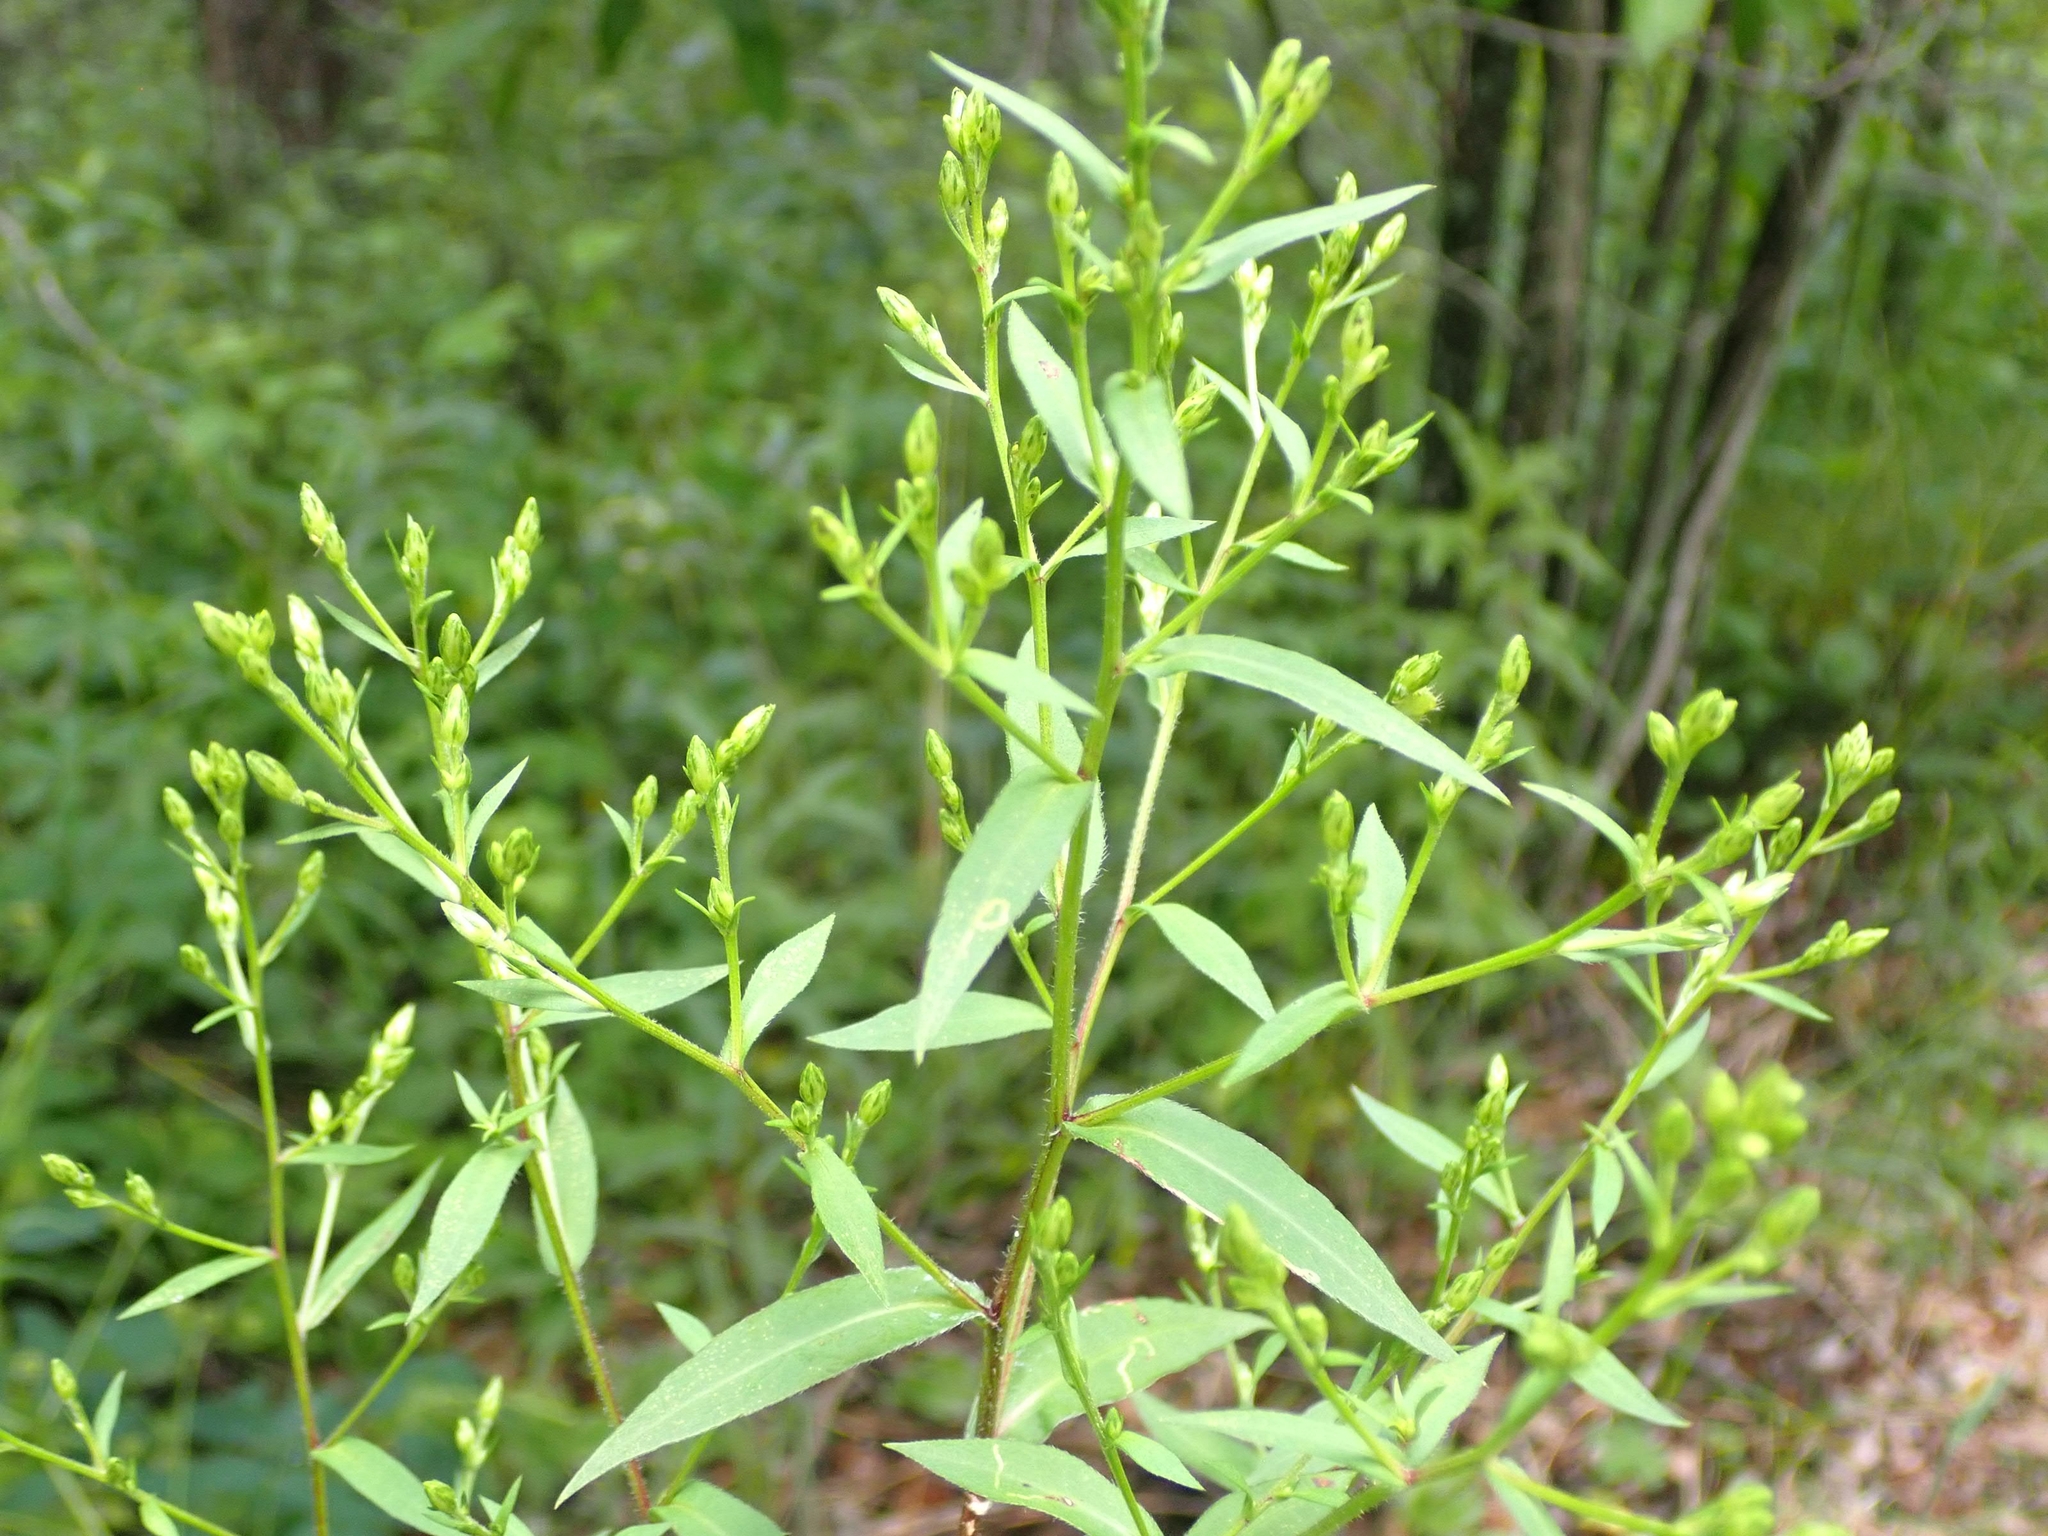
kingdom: Plantae
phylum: Tracheophyta
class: Magnoliopsida
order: Asterales
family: Asteraceae
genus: Symphyotrichum
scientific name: Symphyotrichum lateriflorum
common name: Calico aster
